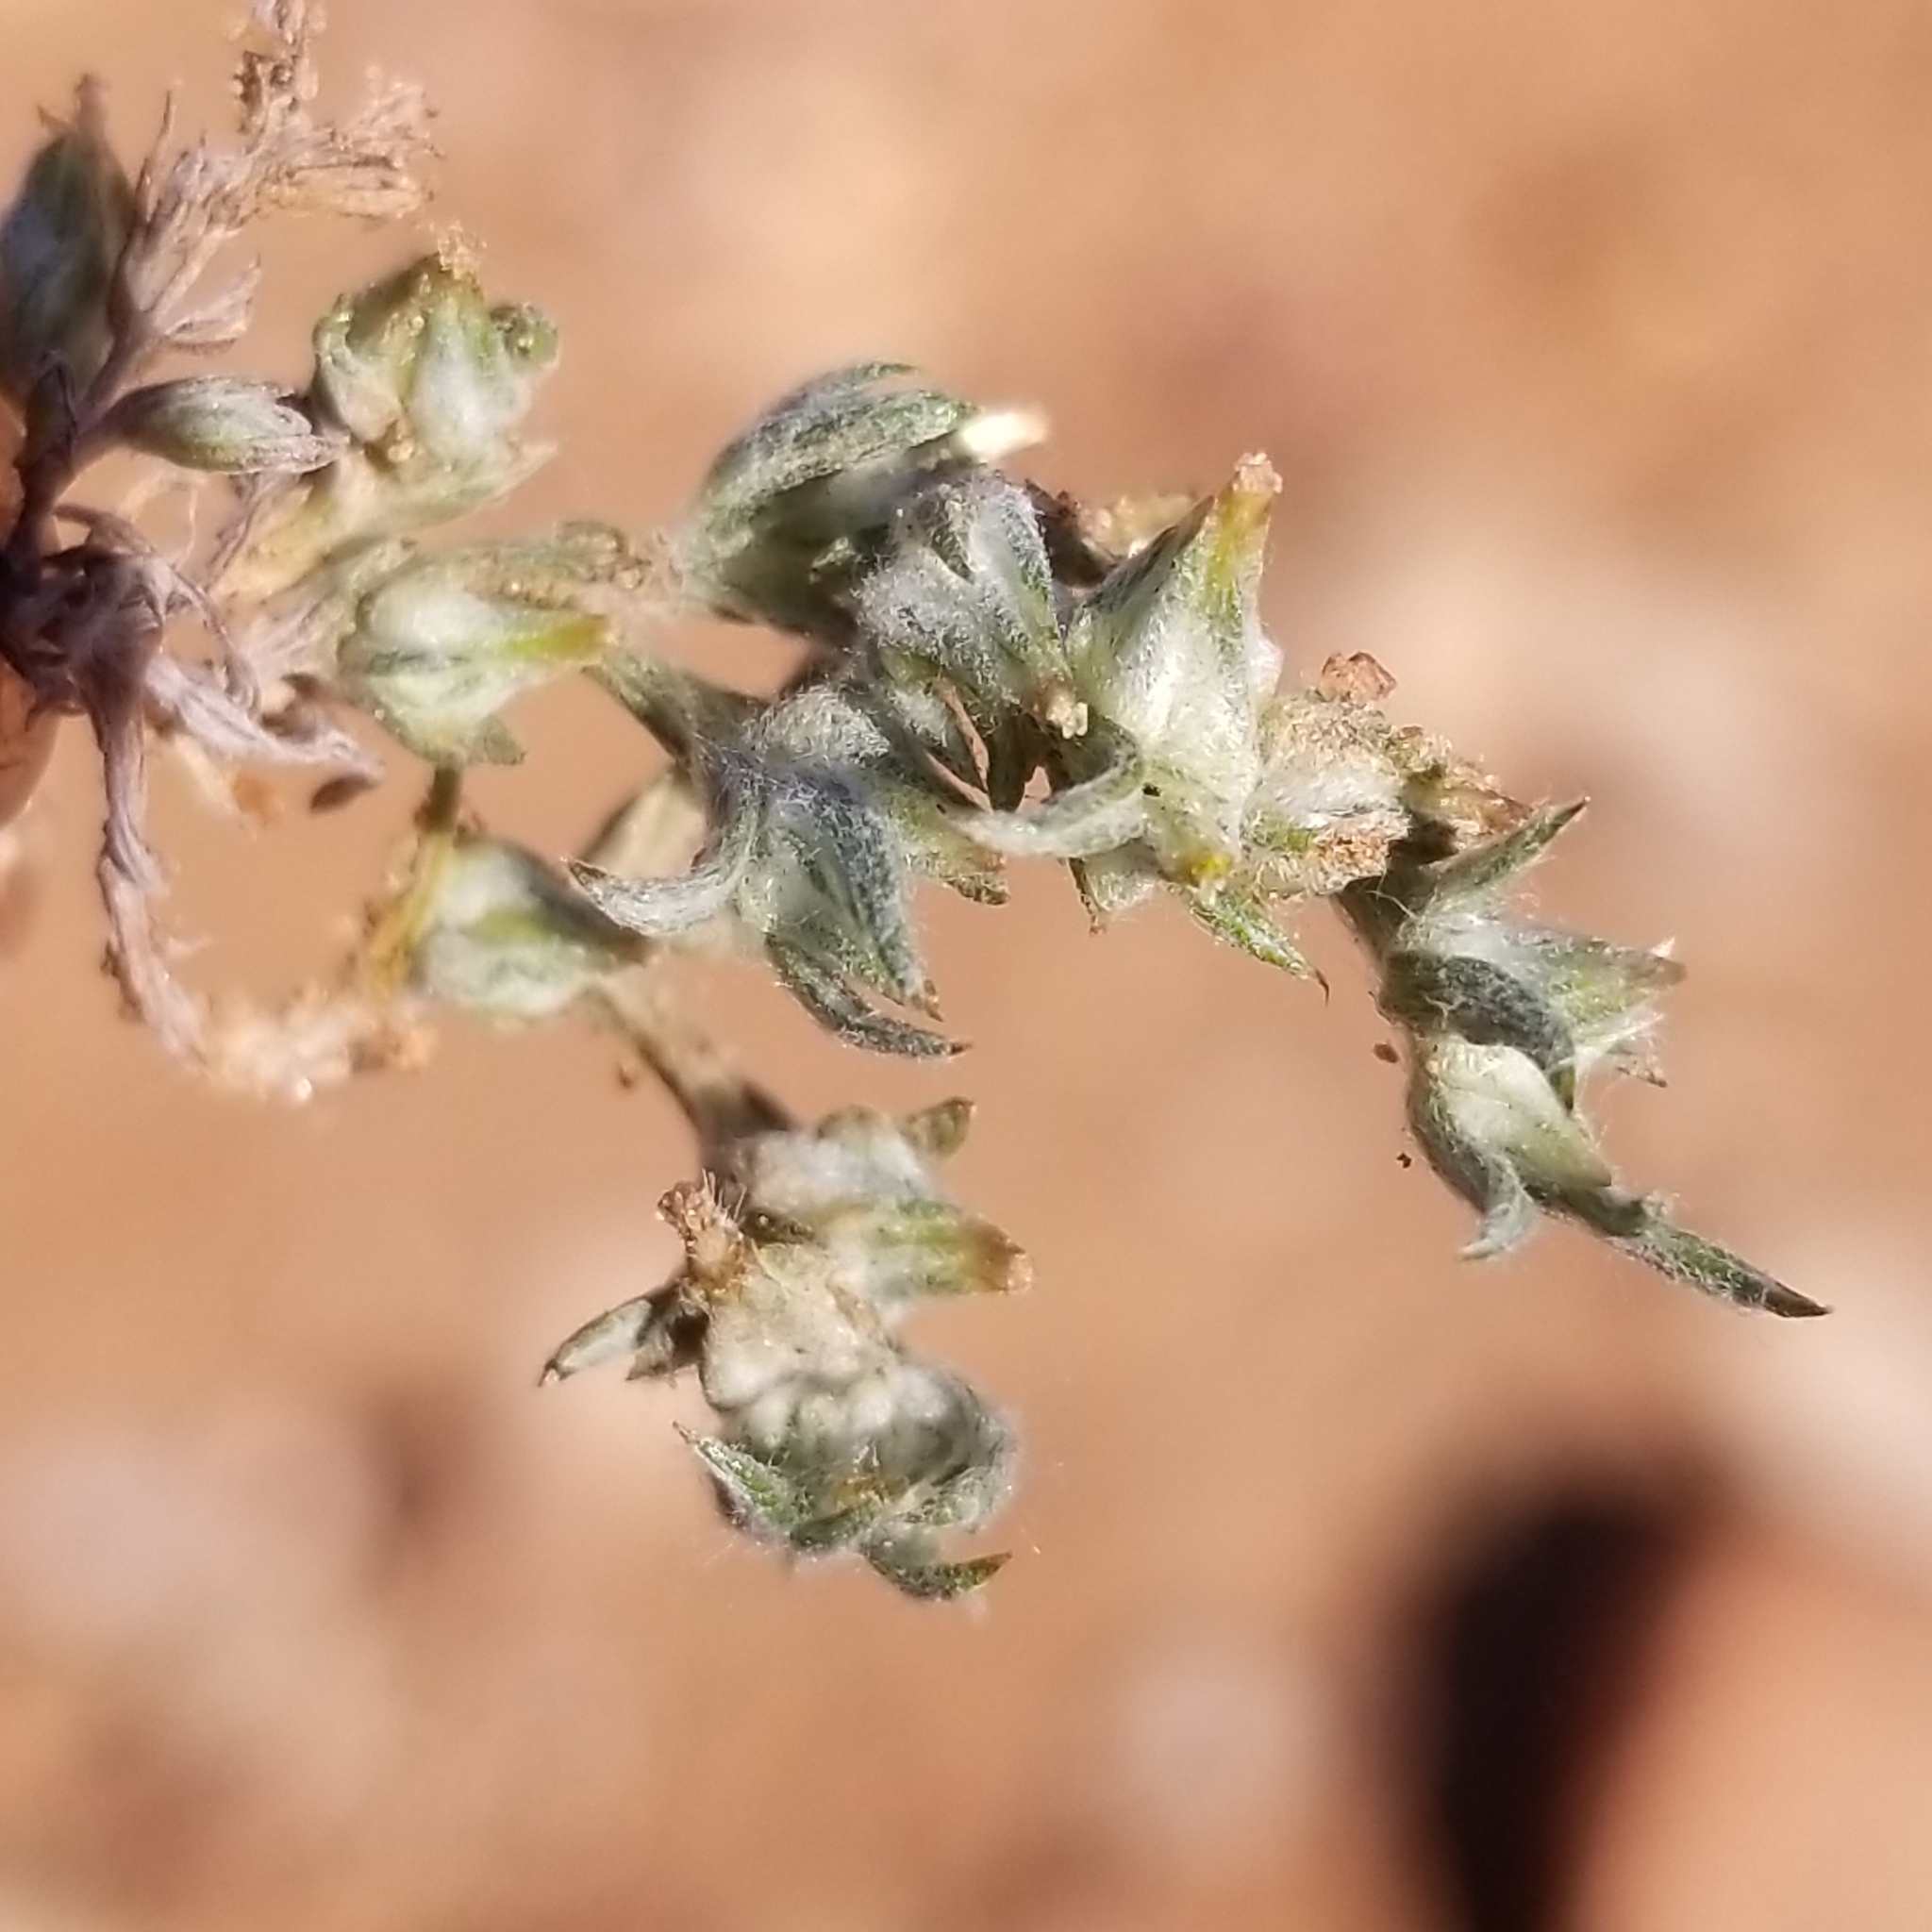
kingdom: Plantae
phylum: Tracheophyta
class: Magnoliopsida
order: Asterales
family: Asteraceae
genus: Logfia
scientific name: Logfia gallica
